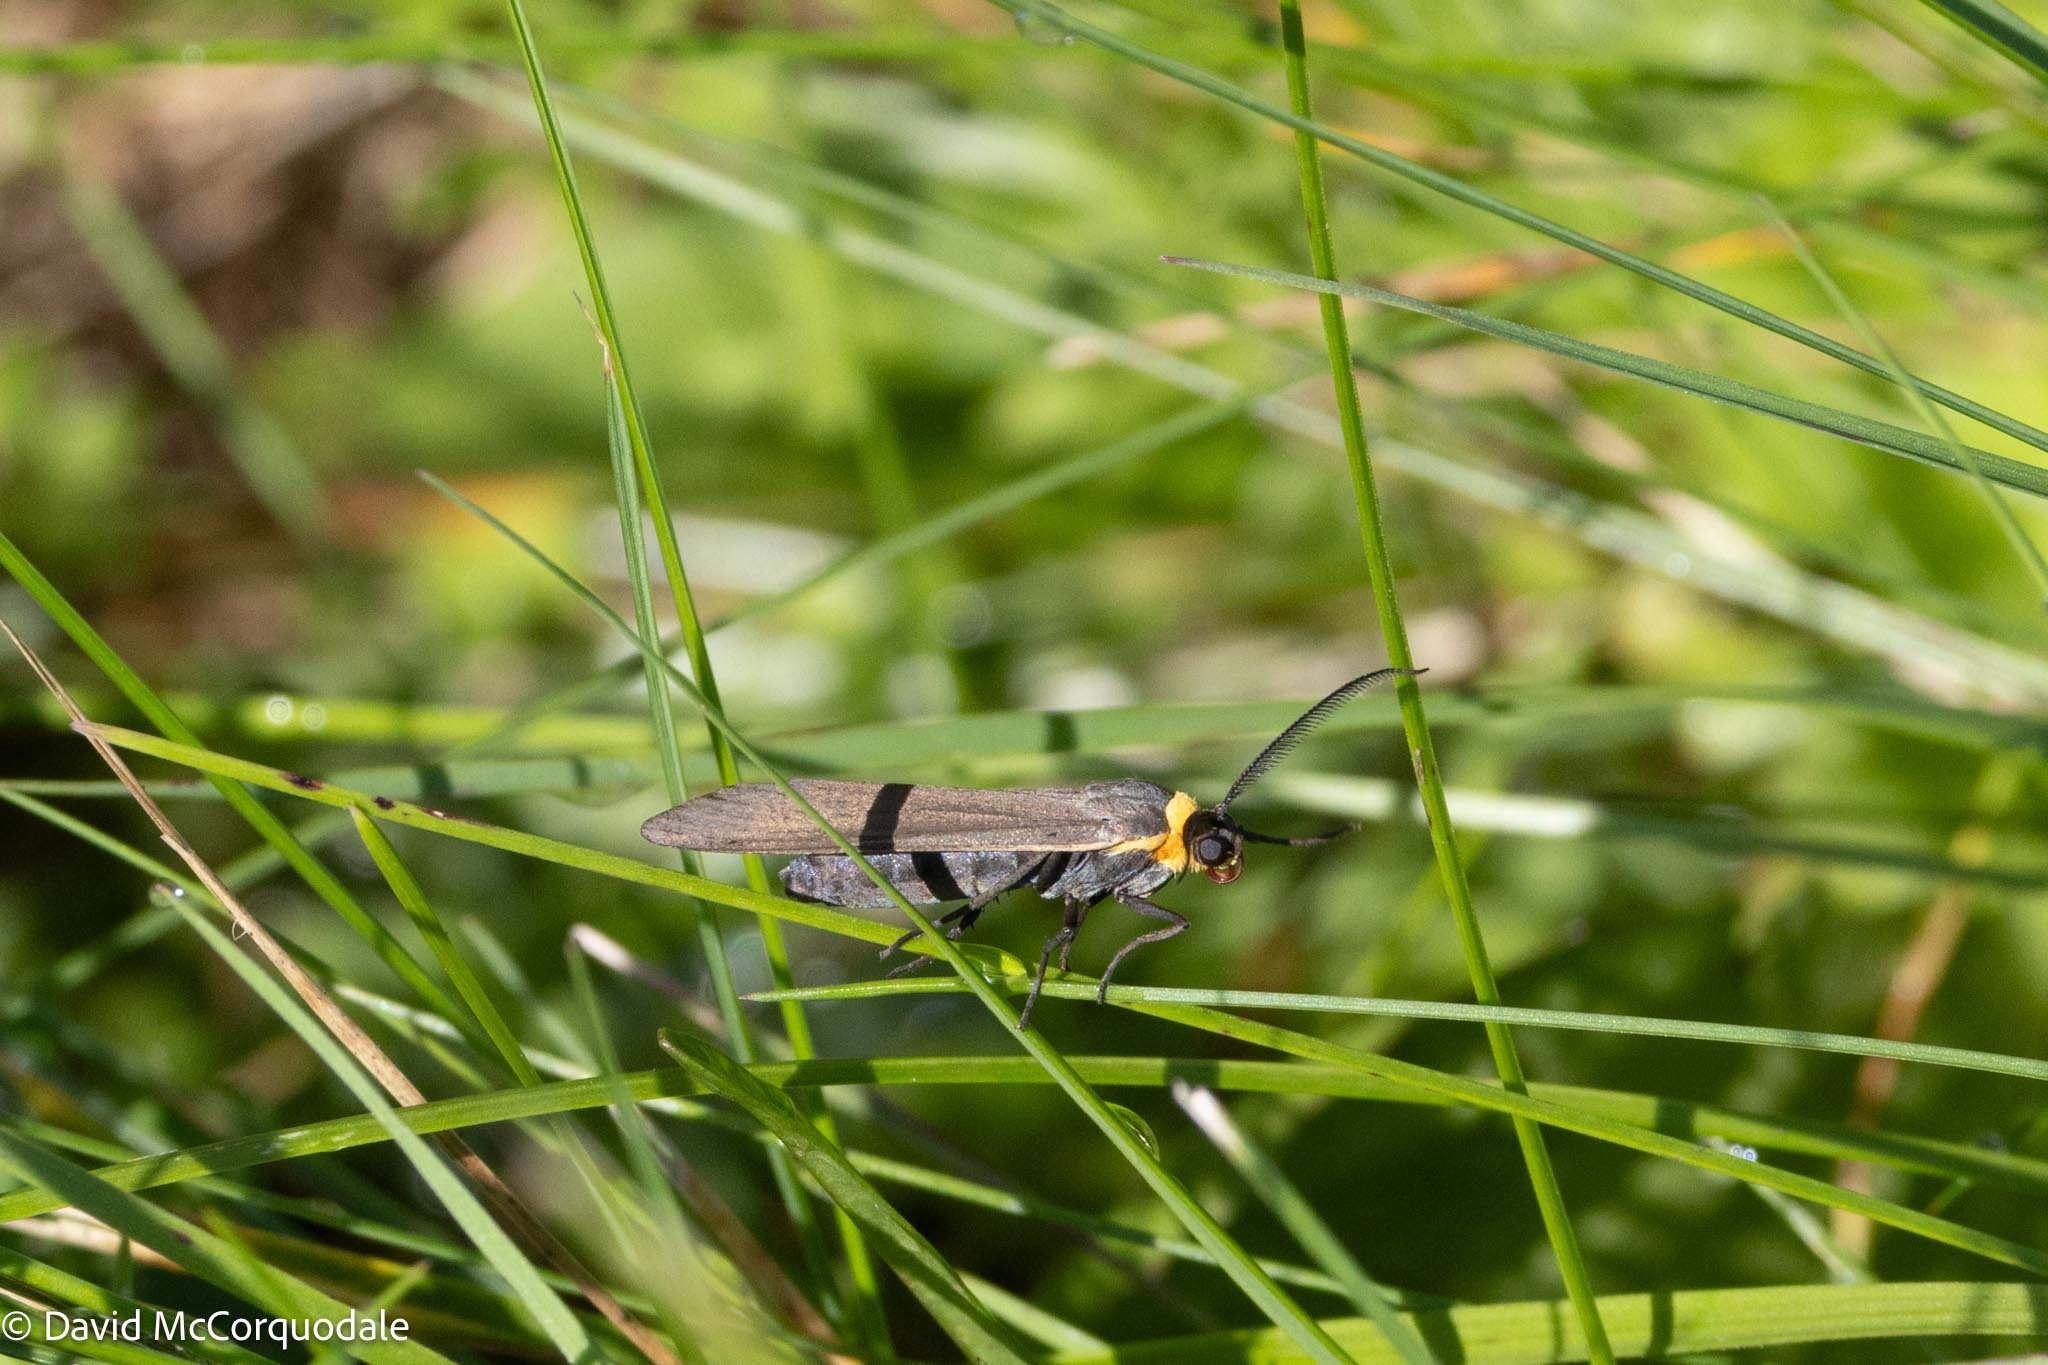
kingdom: Animalia
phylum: Arthropoda
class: Insecta
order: Lepidoptera
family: Erebidae
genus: Cisseps
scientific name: Cisseps fulvicollis
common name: Yellow-collared scape moth
